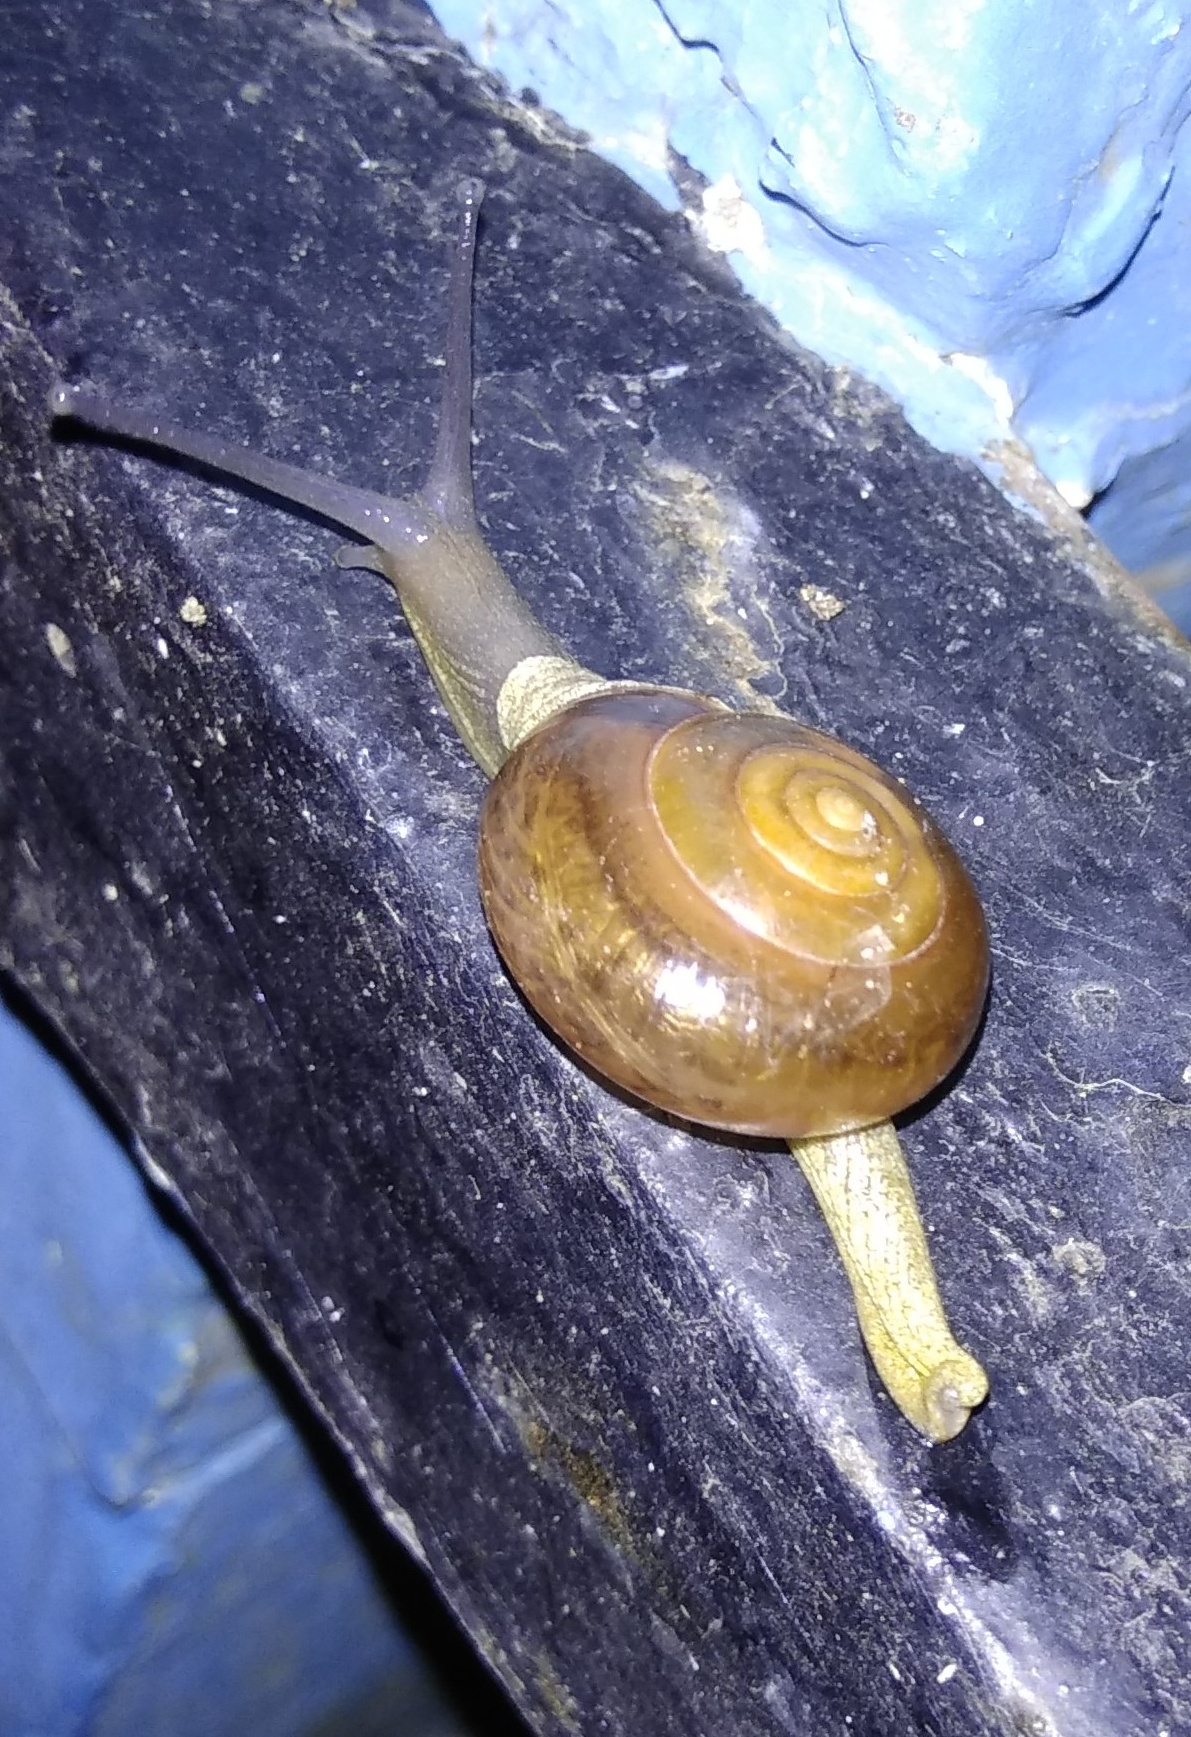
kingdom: Animalia
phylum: Mollusca
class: Gastropoda
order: Stylommatophora
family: Ariophantidae
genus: Macrochlamys
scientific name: Macrochlamys indica
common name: Horntail snail
